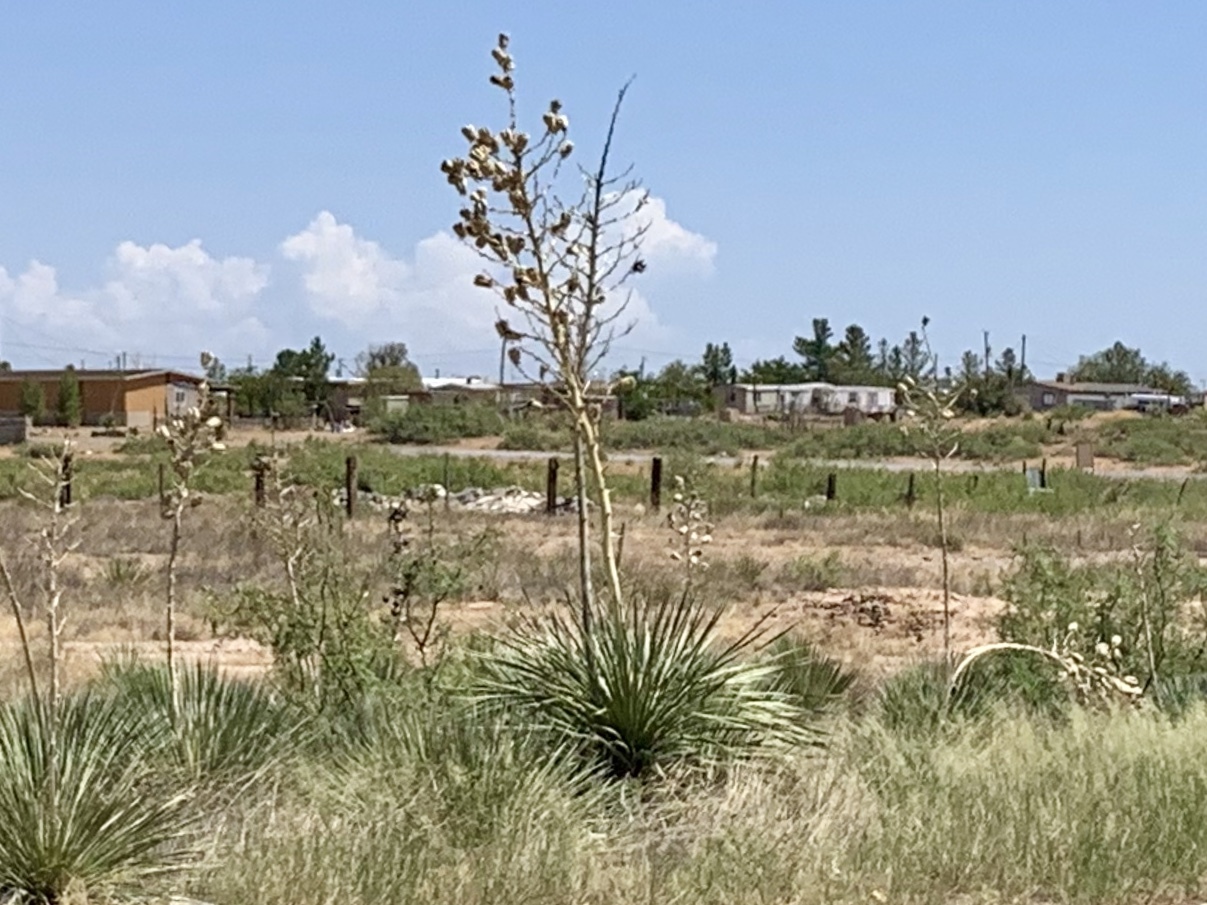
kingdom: Plantae
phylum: Tracheophyta
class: Liliopsida
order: Asparagales
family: Asparagaceae
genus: Yucca
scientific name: Yucca elata
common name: Palmella
